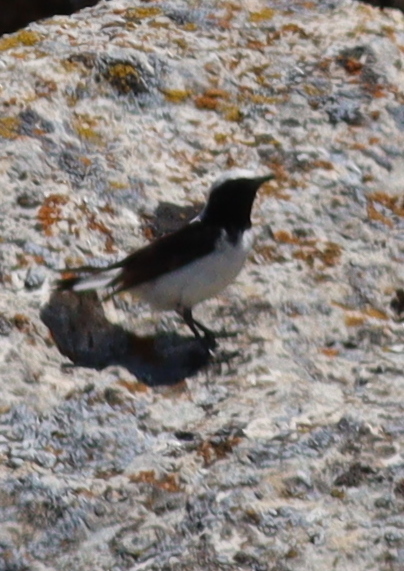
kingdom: Animalia
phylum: Chordata
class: Aves
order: Passeriformes
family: Muscicapidae
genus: Oenanthe
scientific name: Oenanthe finschii
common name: Finsch's wheatear
